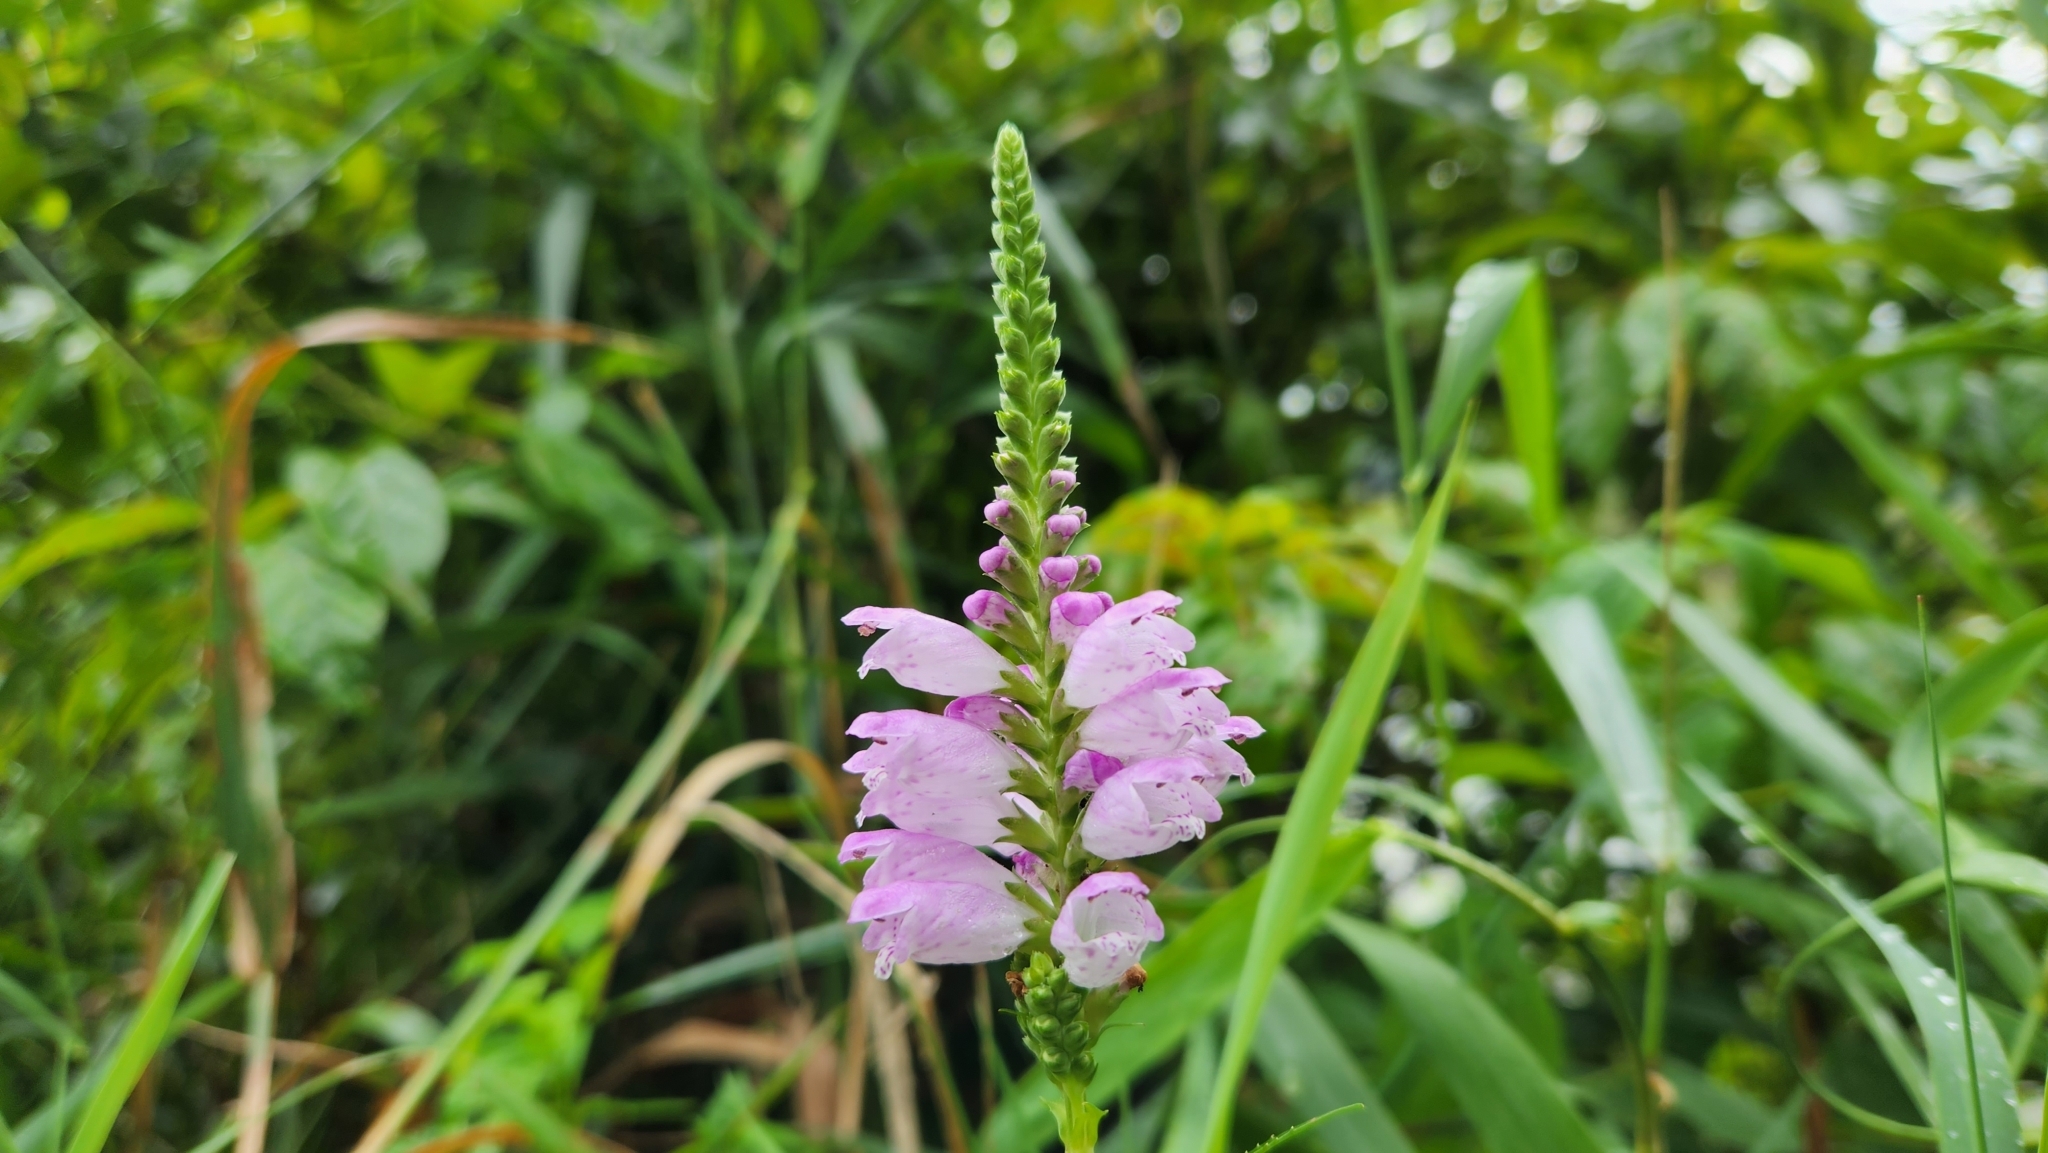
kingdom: Plantae
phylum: Tracheophyta
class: Magnoliopsida
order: Lamiales
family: Lamiaceae
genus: Physostegia
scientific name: Physostegia virginiana
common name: Obedient-plant
